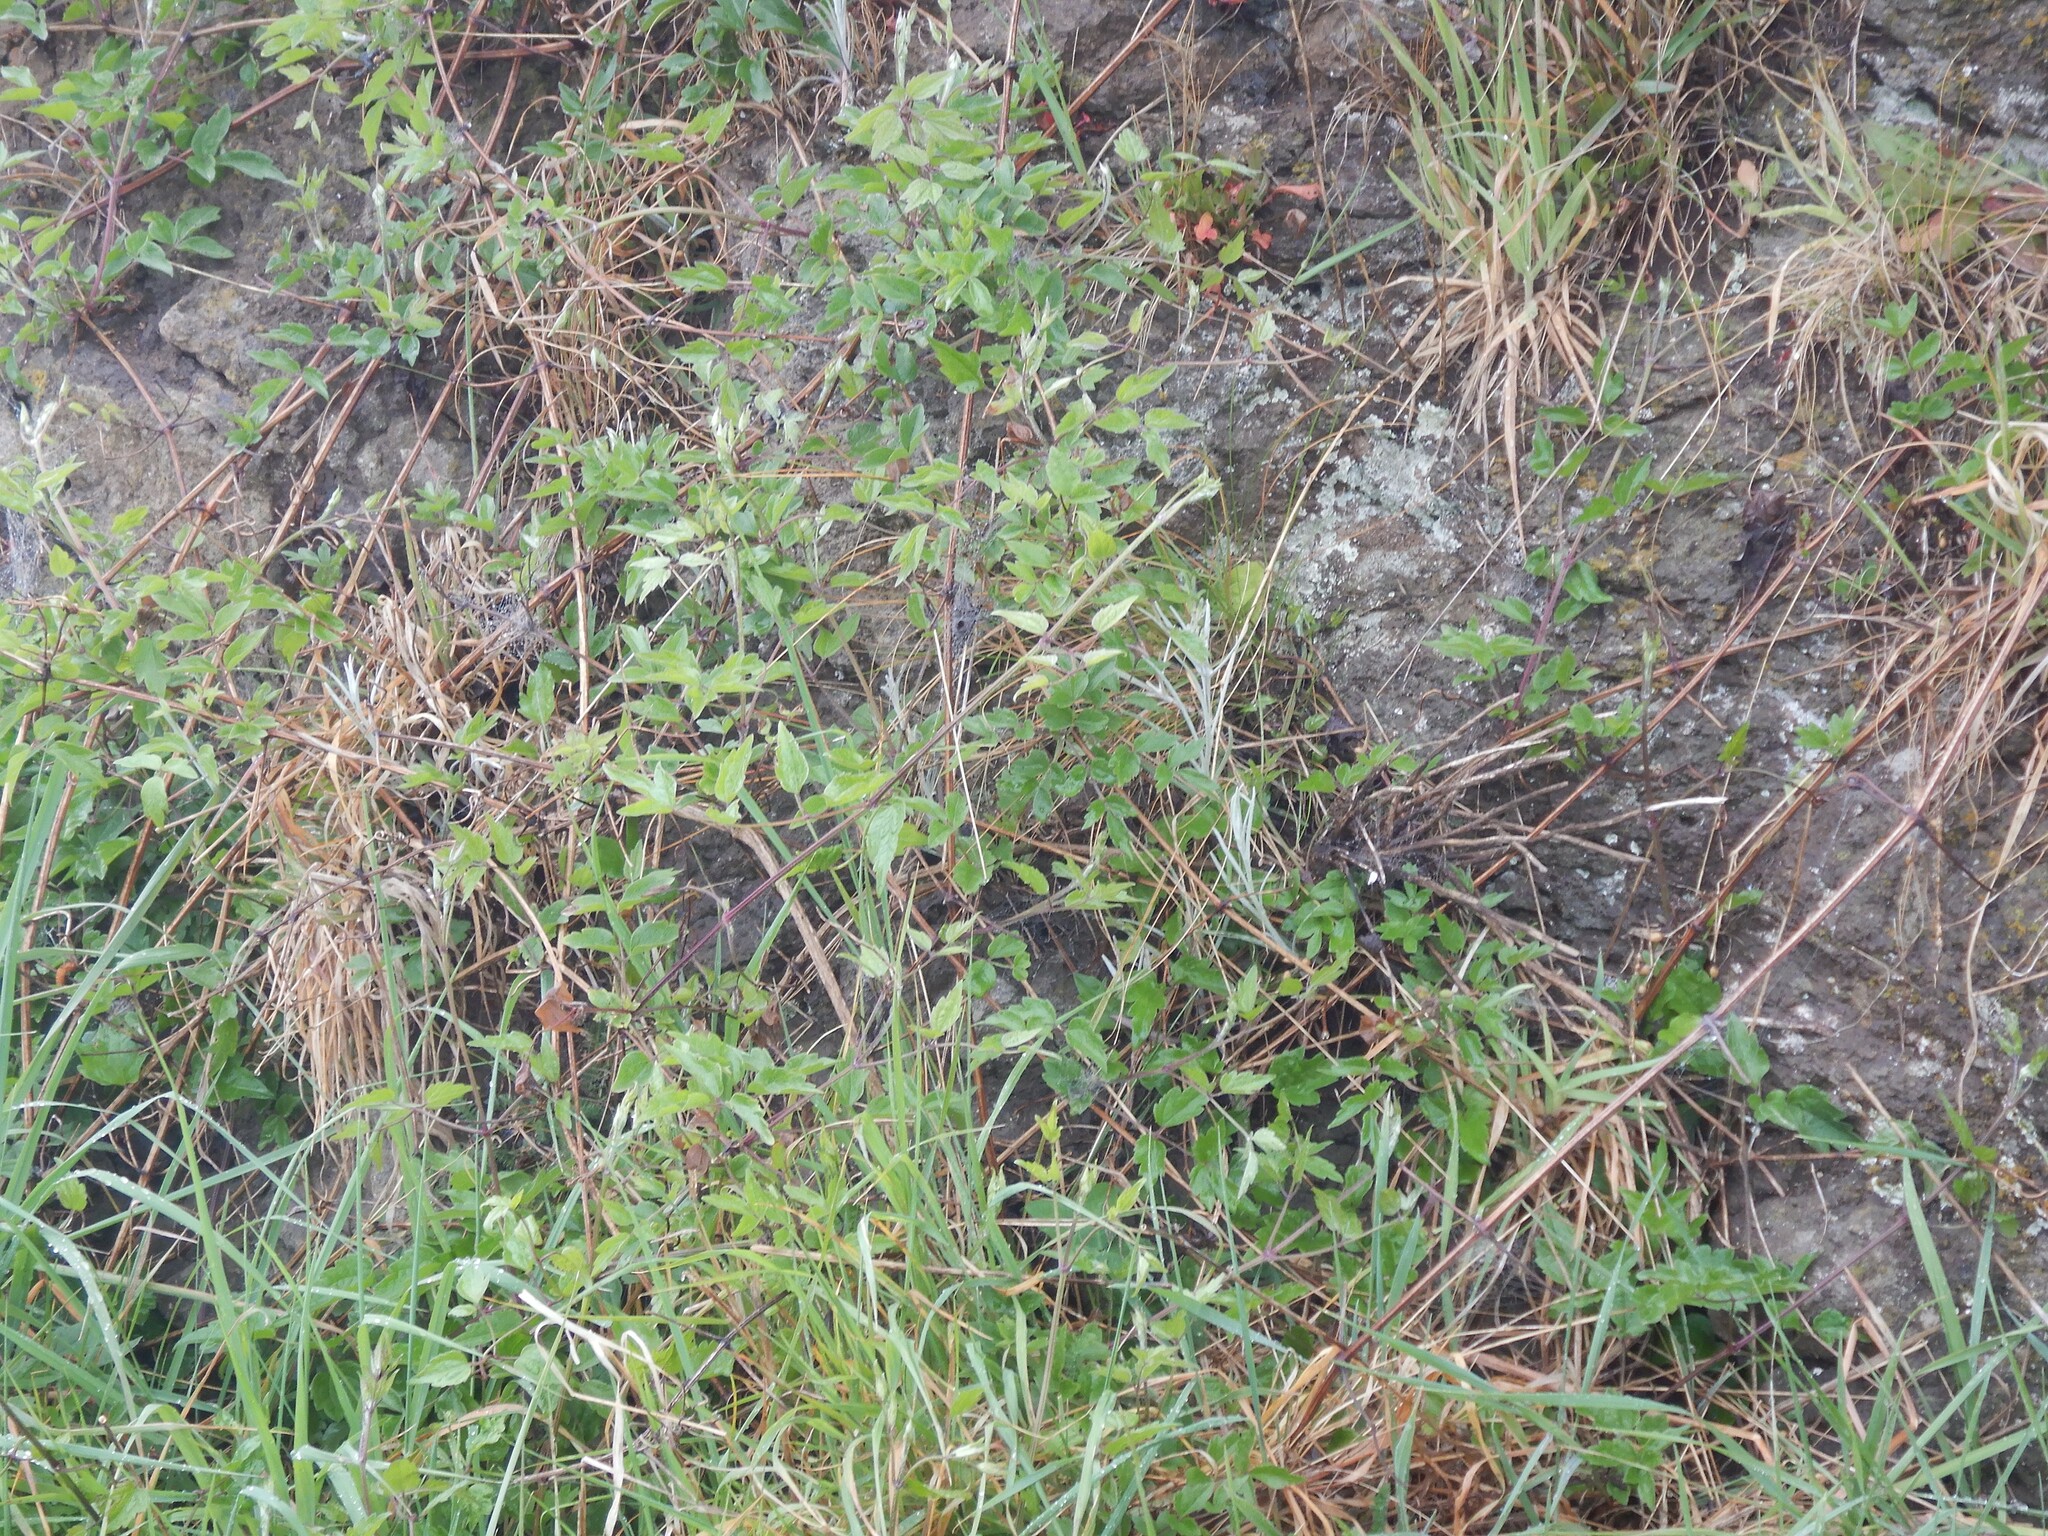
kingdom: Plantae
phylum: Tracheophyta
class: Magnoliopsida
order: Ranunculales
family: Ranunculaceae
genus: Clematis
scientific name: Clematis vitalba
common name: Evergreen clematis
